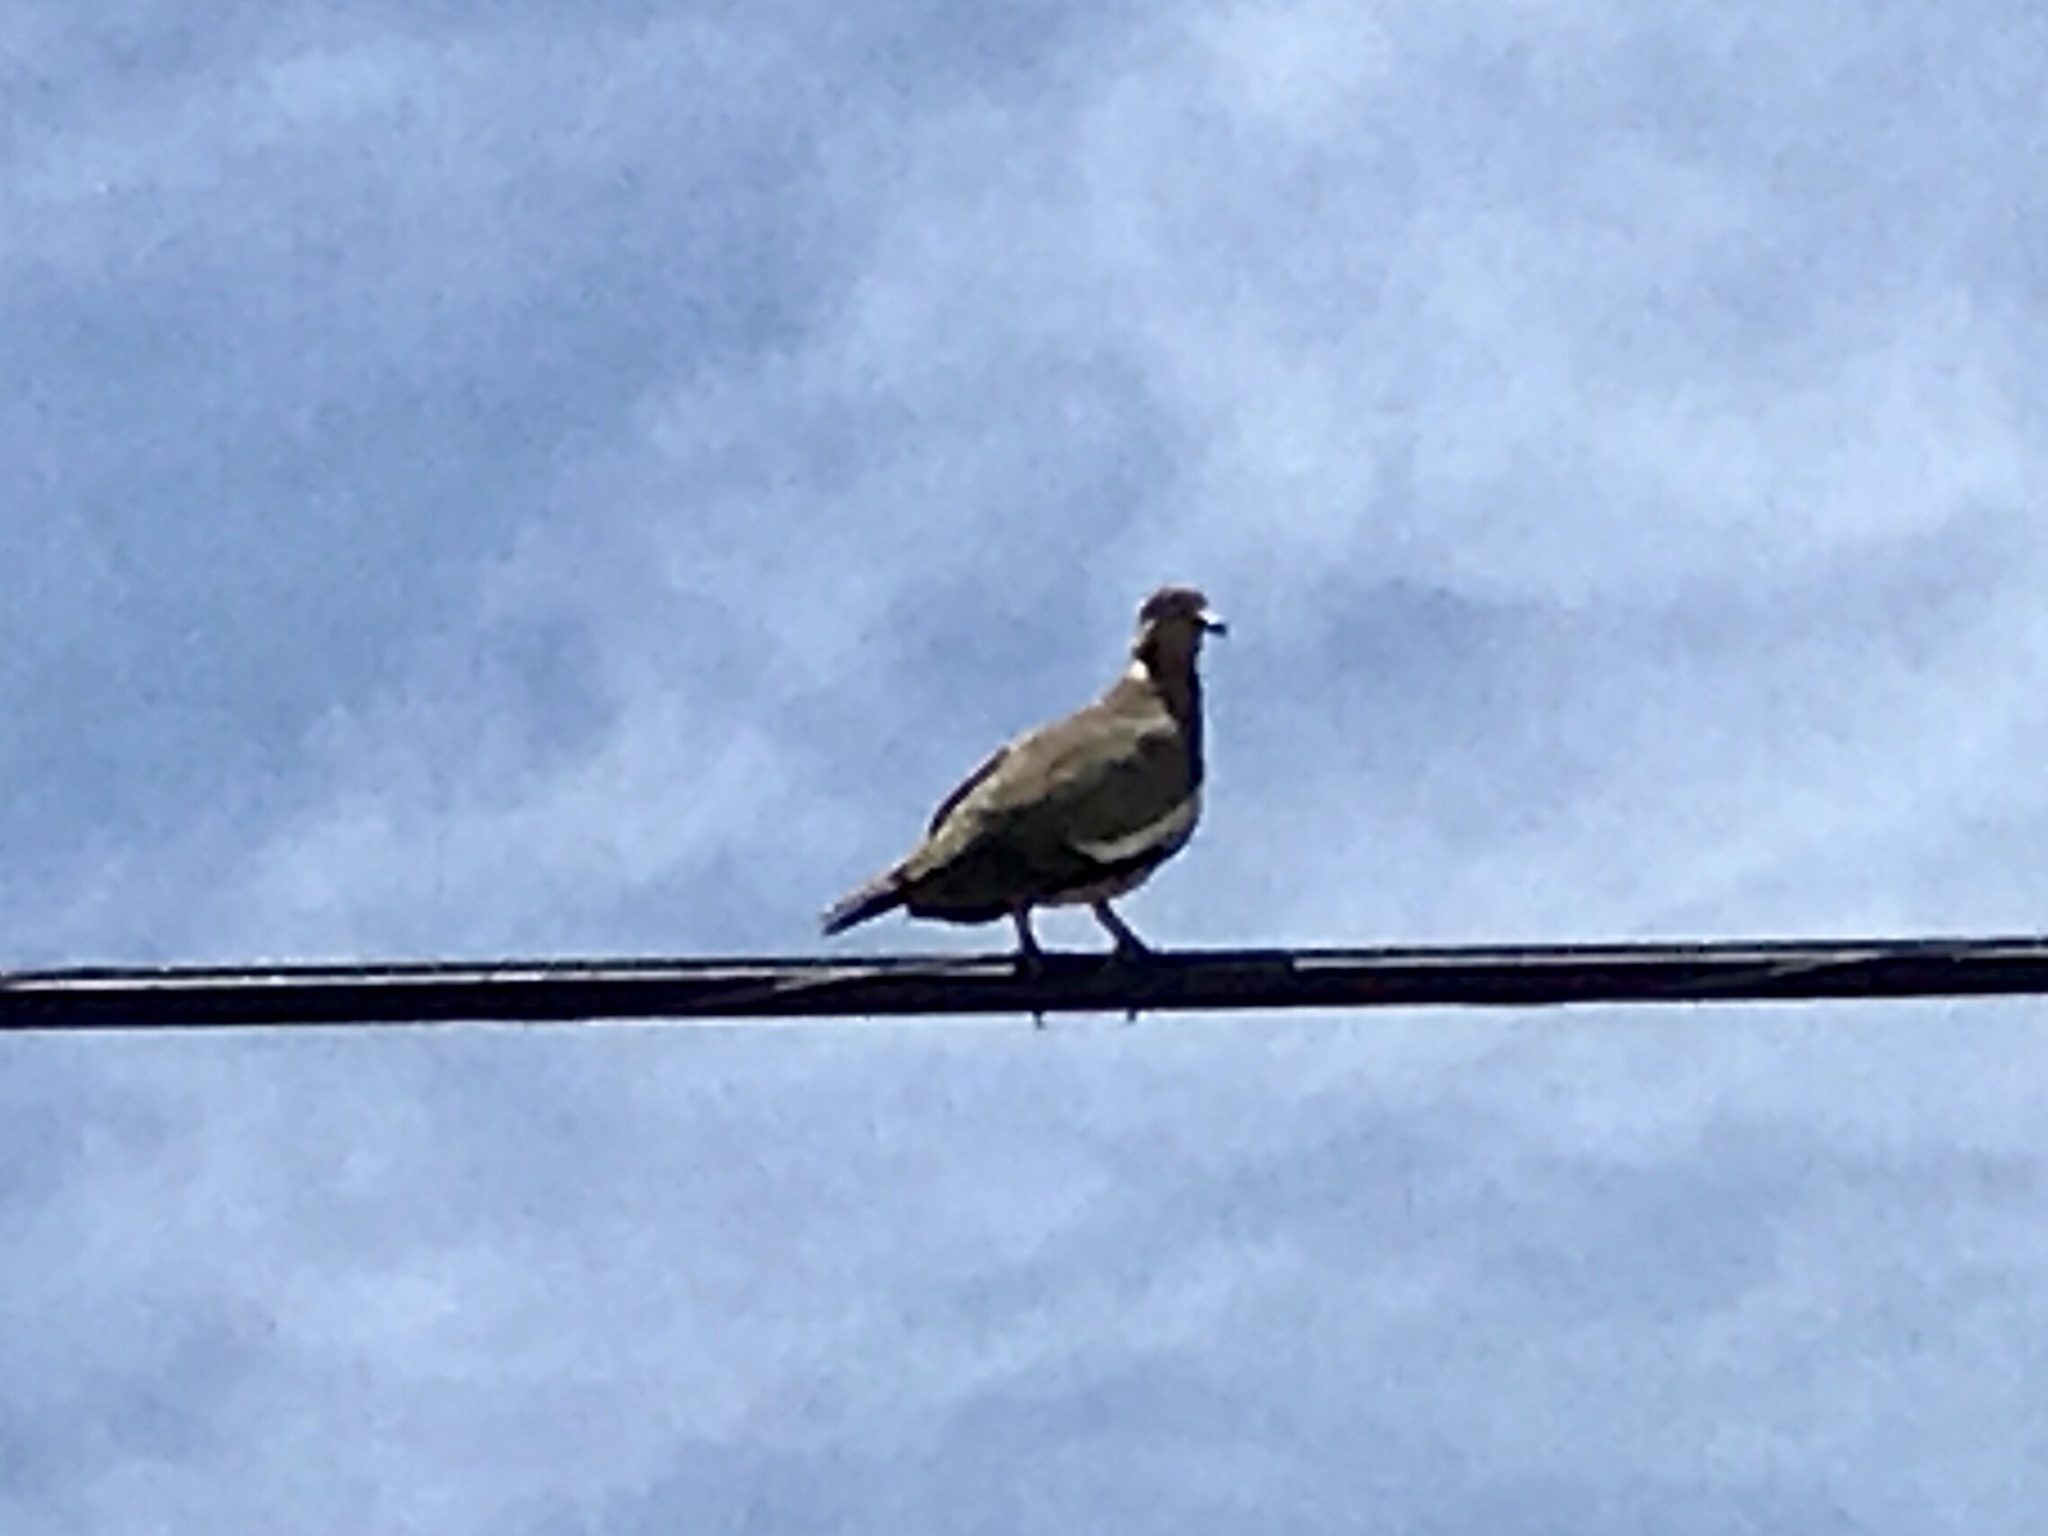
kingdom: Animalia
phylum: Chordata
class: Aves
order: Columbiformes
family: Columbidae
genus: Zenaida
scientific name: Zenaida asiatica
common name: White-winged dove
